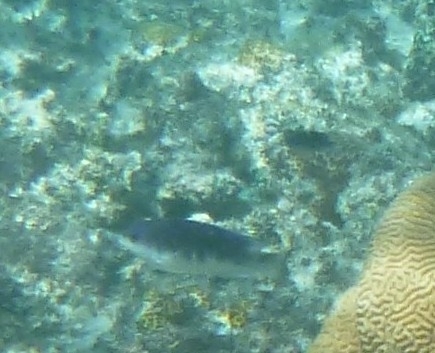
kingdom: Animalia
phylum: Chordata
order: Perciformes
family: Pomacentridae
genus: Chrysiptera
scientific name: Chrysiptera glauca
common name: Grey demoiselle
